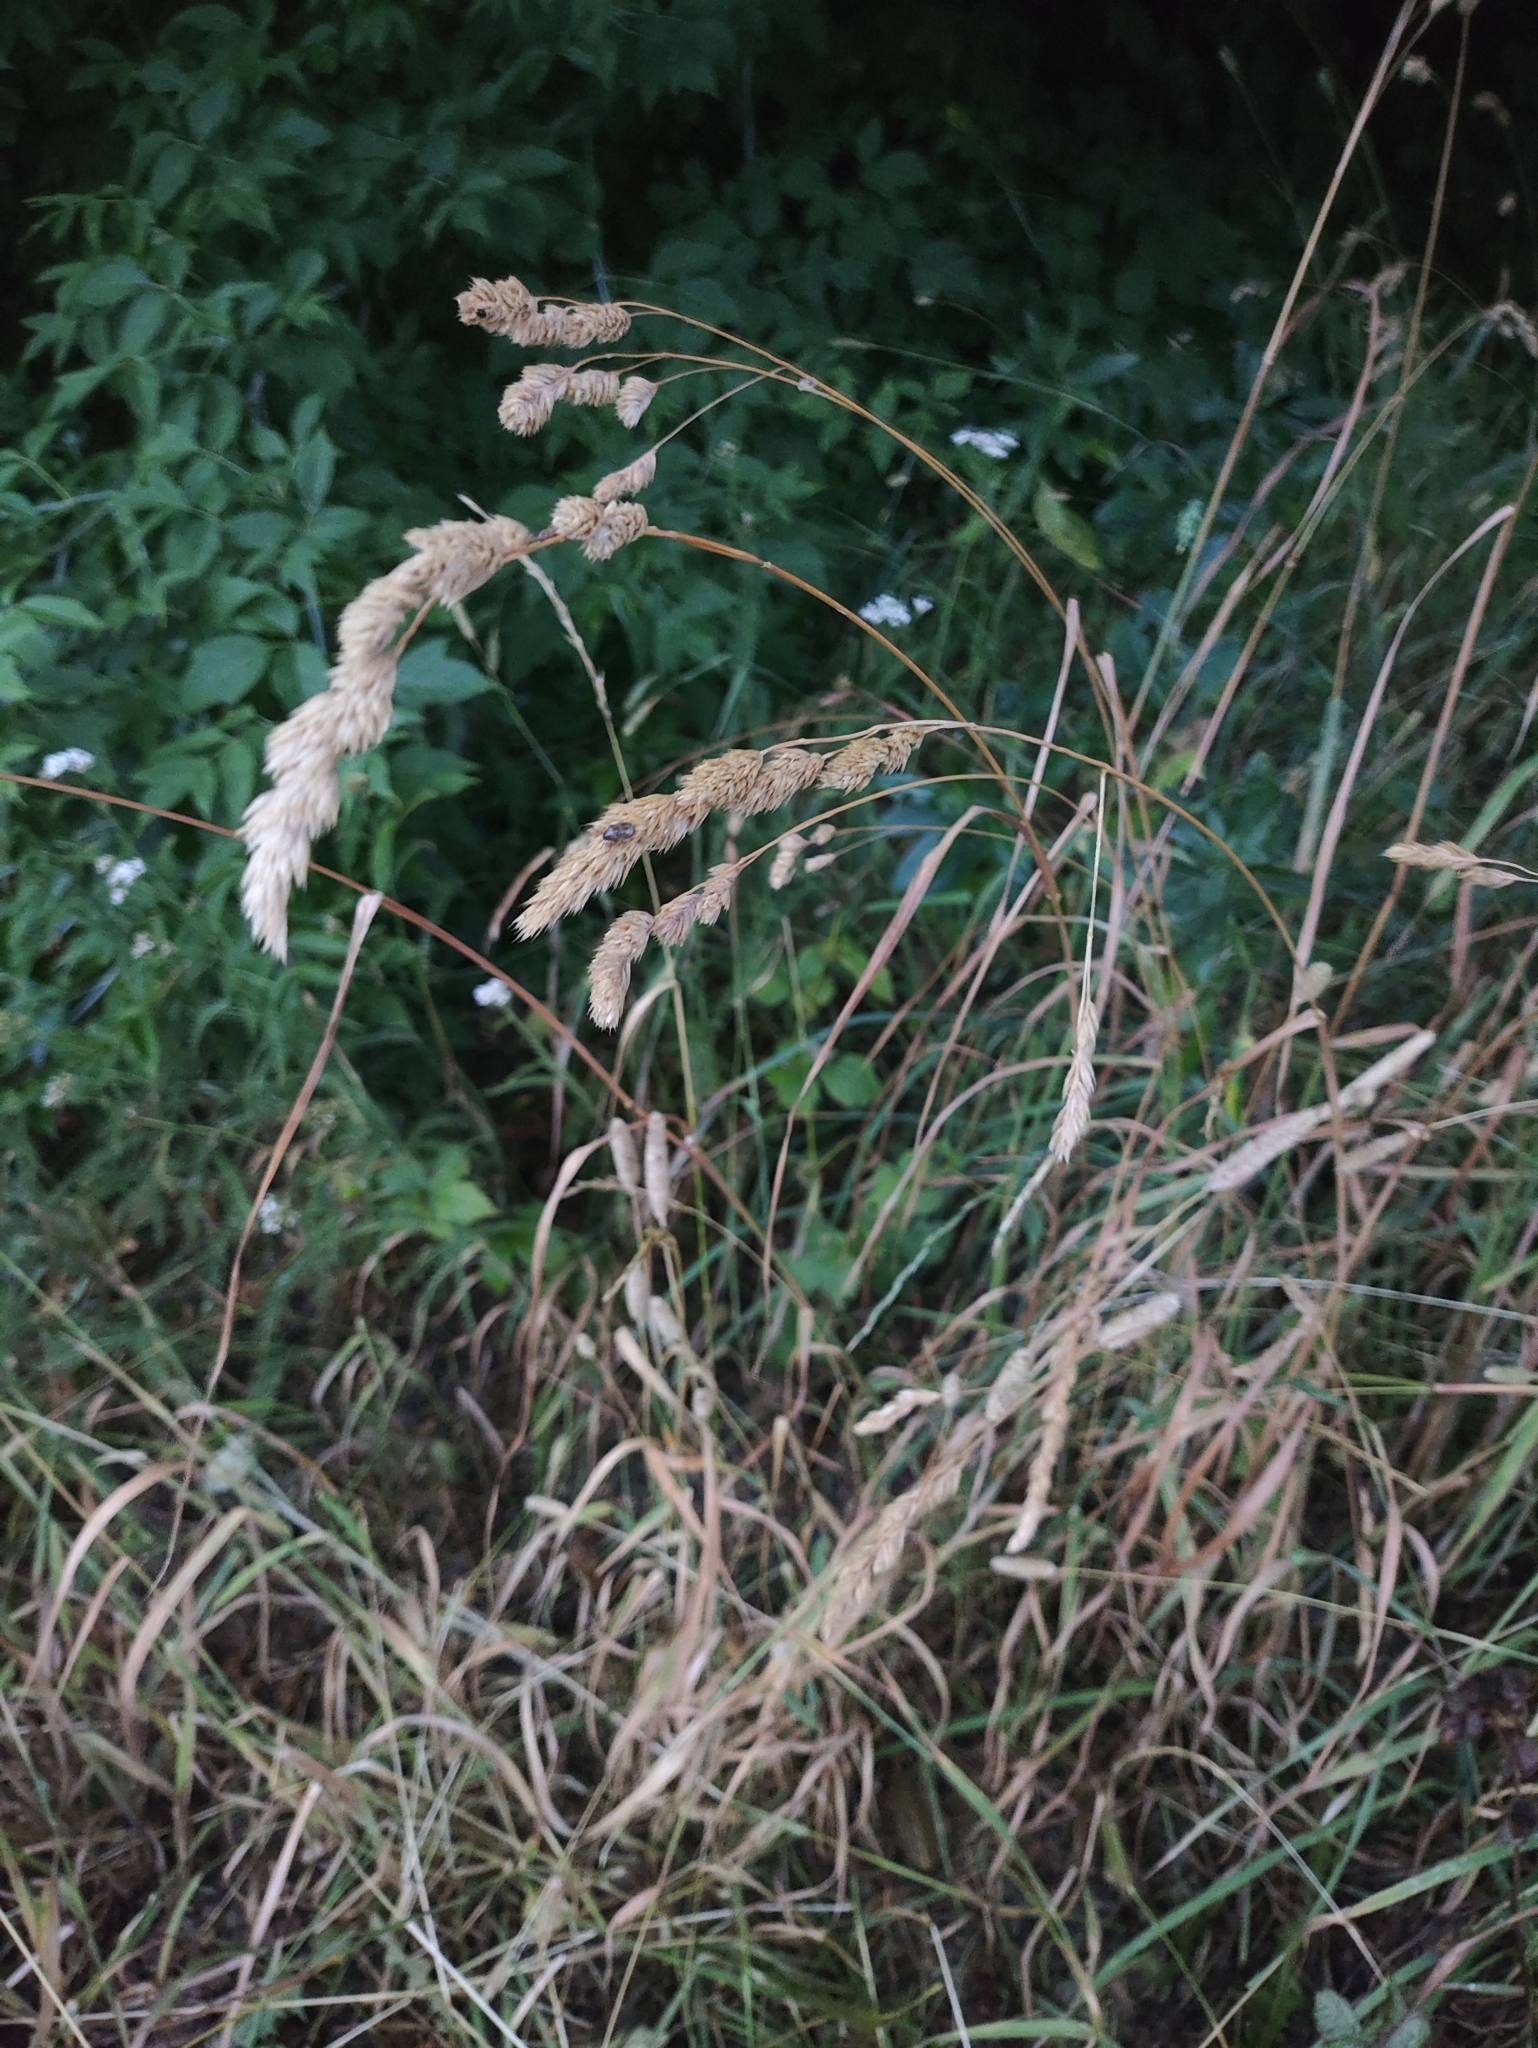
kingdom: Plantae
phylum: Tracheophyta
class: Liliopsida
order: Poales
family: Poaceae
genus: Dactylis
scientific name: Dactylis glomerata
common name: Orchardgrass
